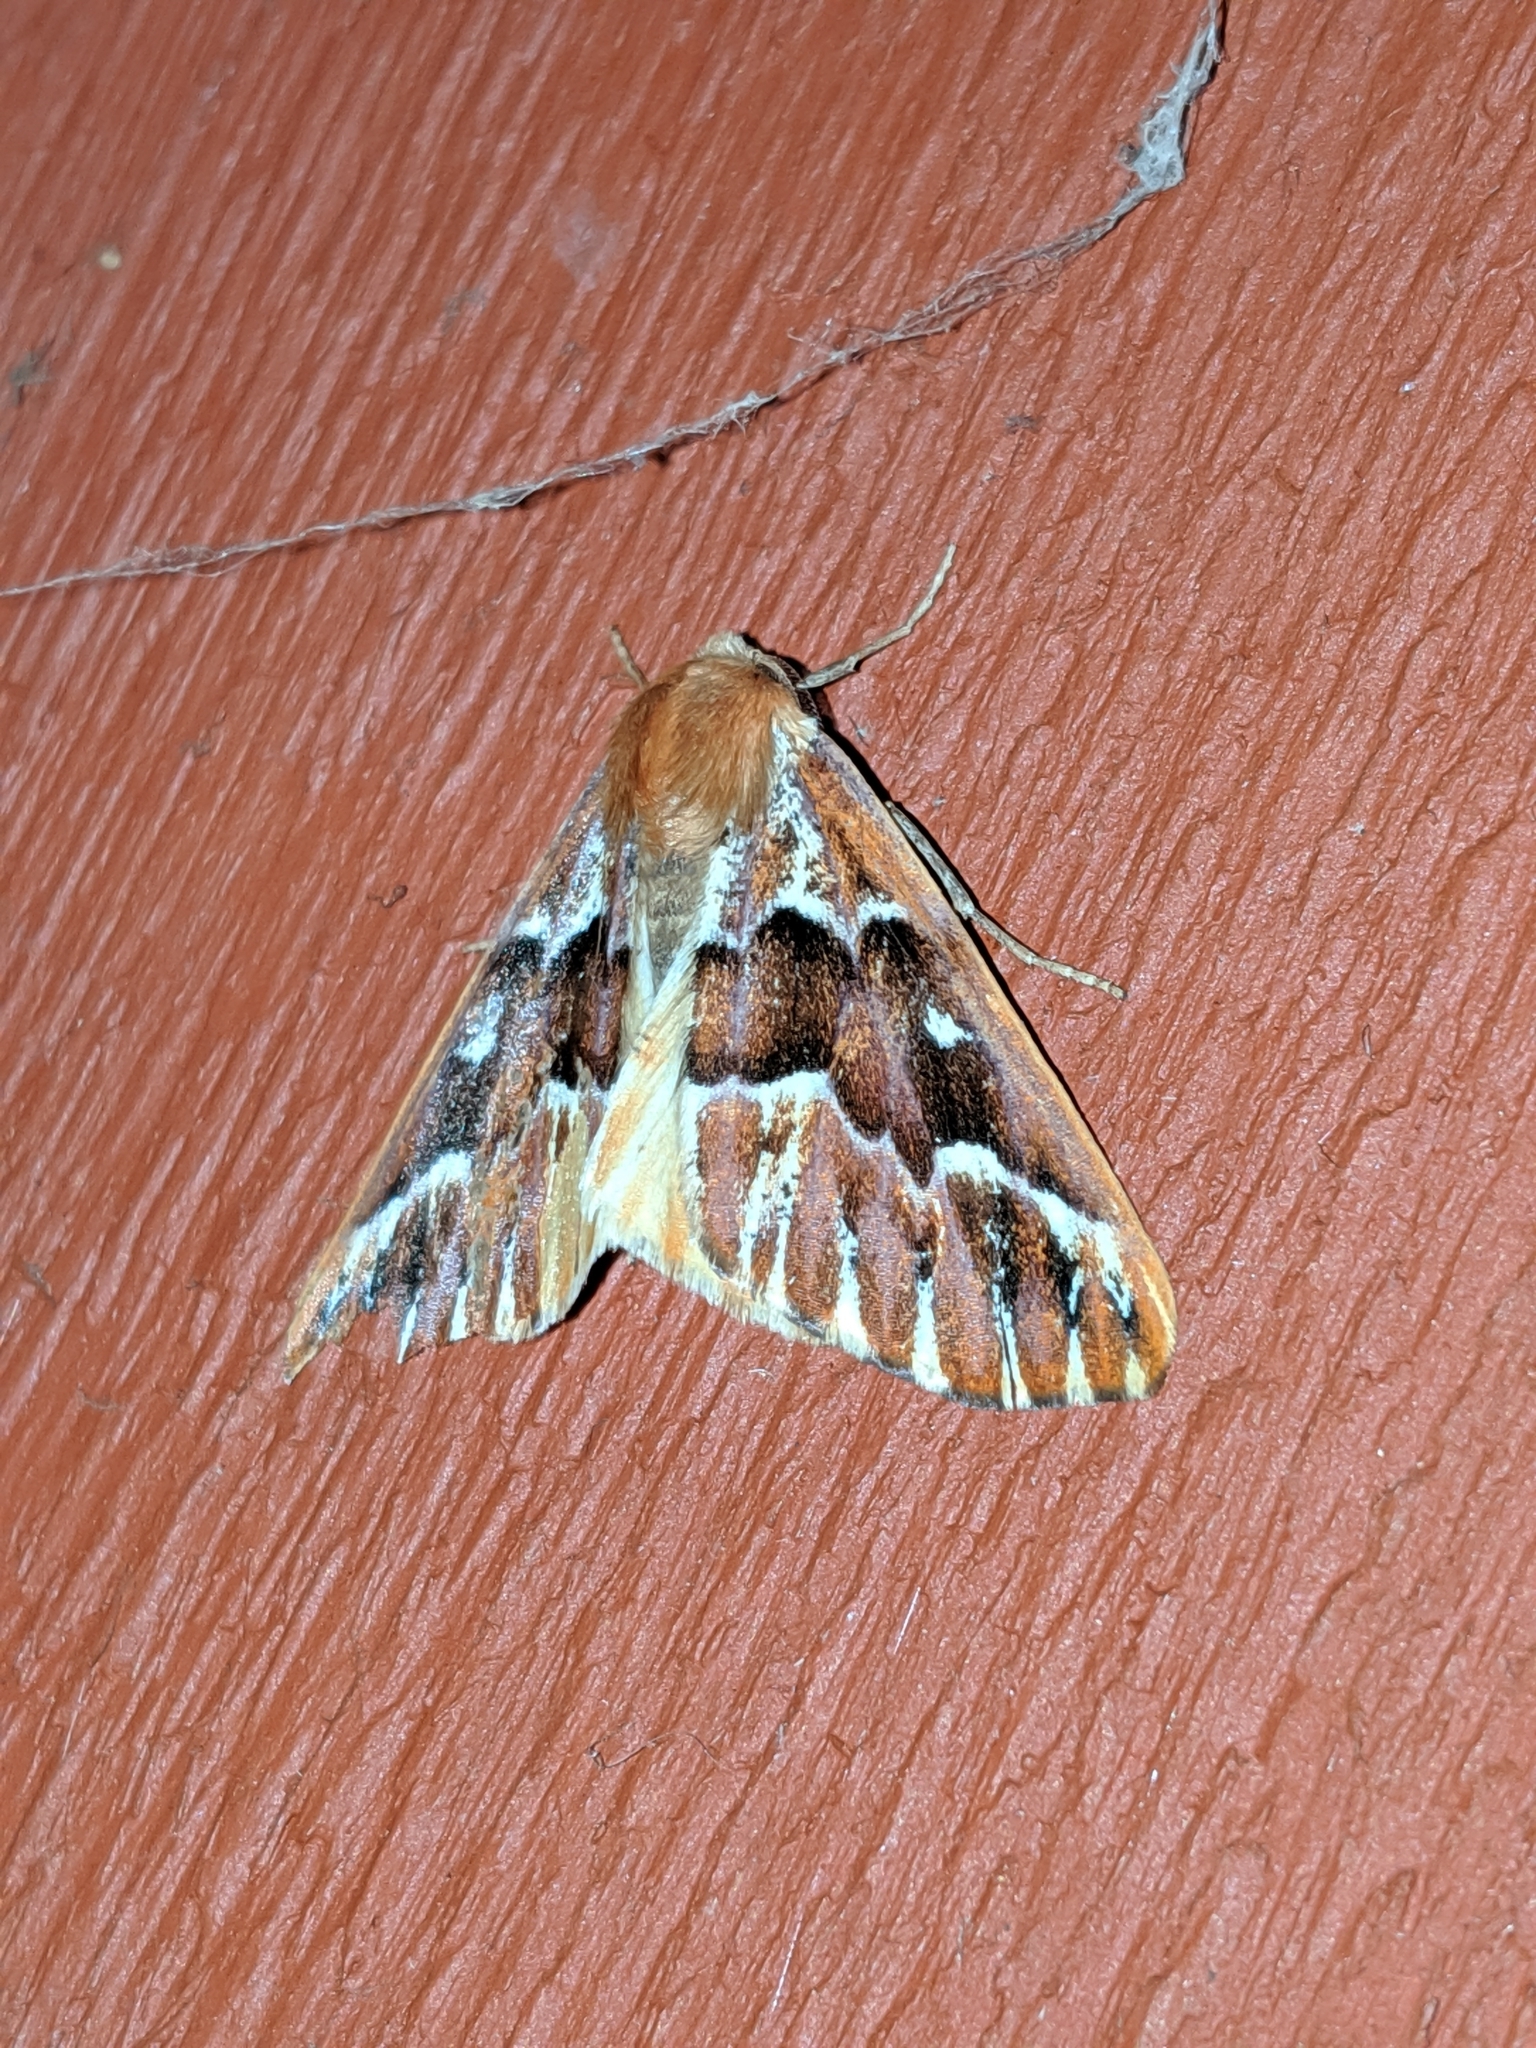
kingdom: Animalia
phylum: Arthropoda
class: Insecta
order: Lepidoptera
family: Geometridae
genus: Caripeta
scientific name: Caripeta aequaliaria
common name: Red girdle moth
